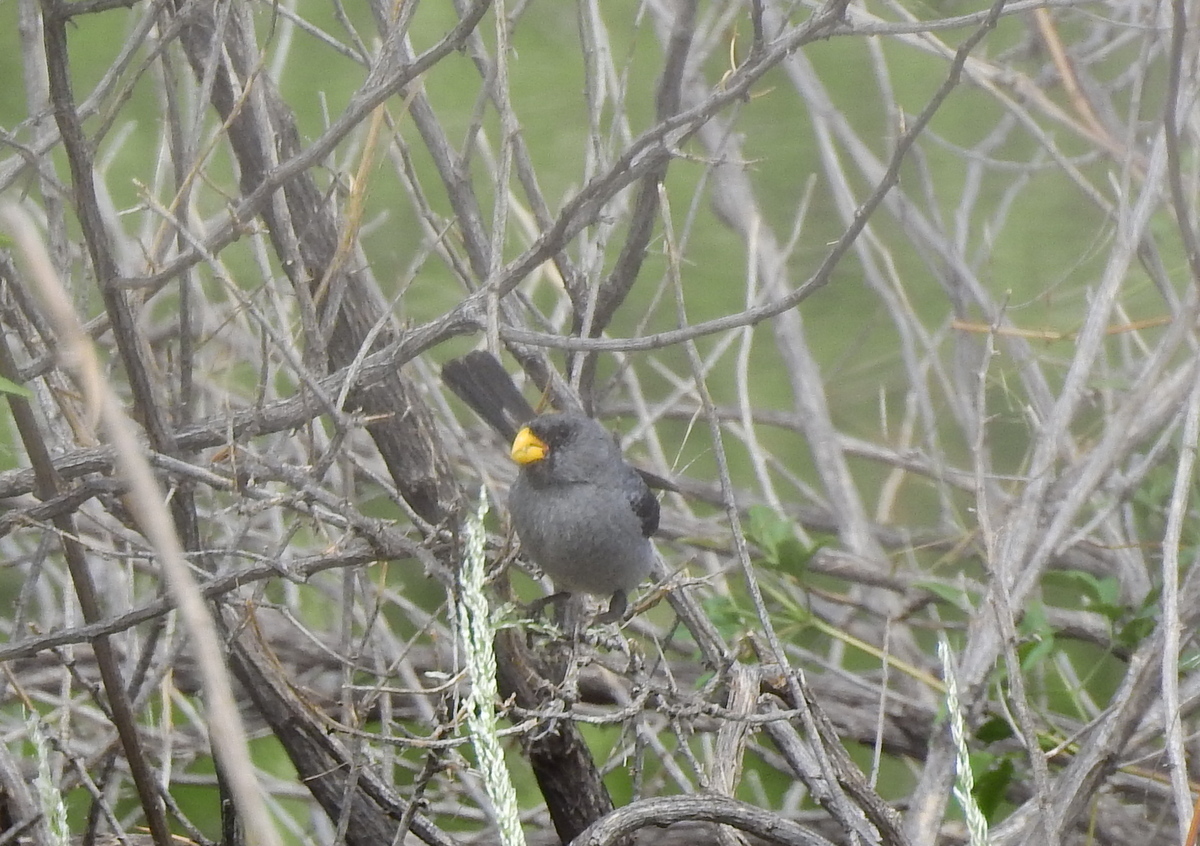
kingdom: Animalia
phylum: Chordata
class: Aves
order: Passeriformes
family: Thraupidae
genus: Catamenia
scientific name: Catamenia analis
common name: Band-tailed seedeater
